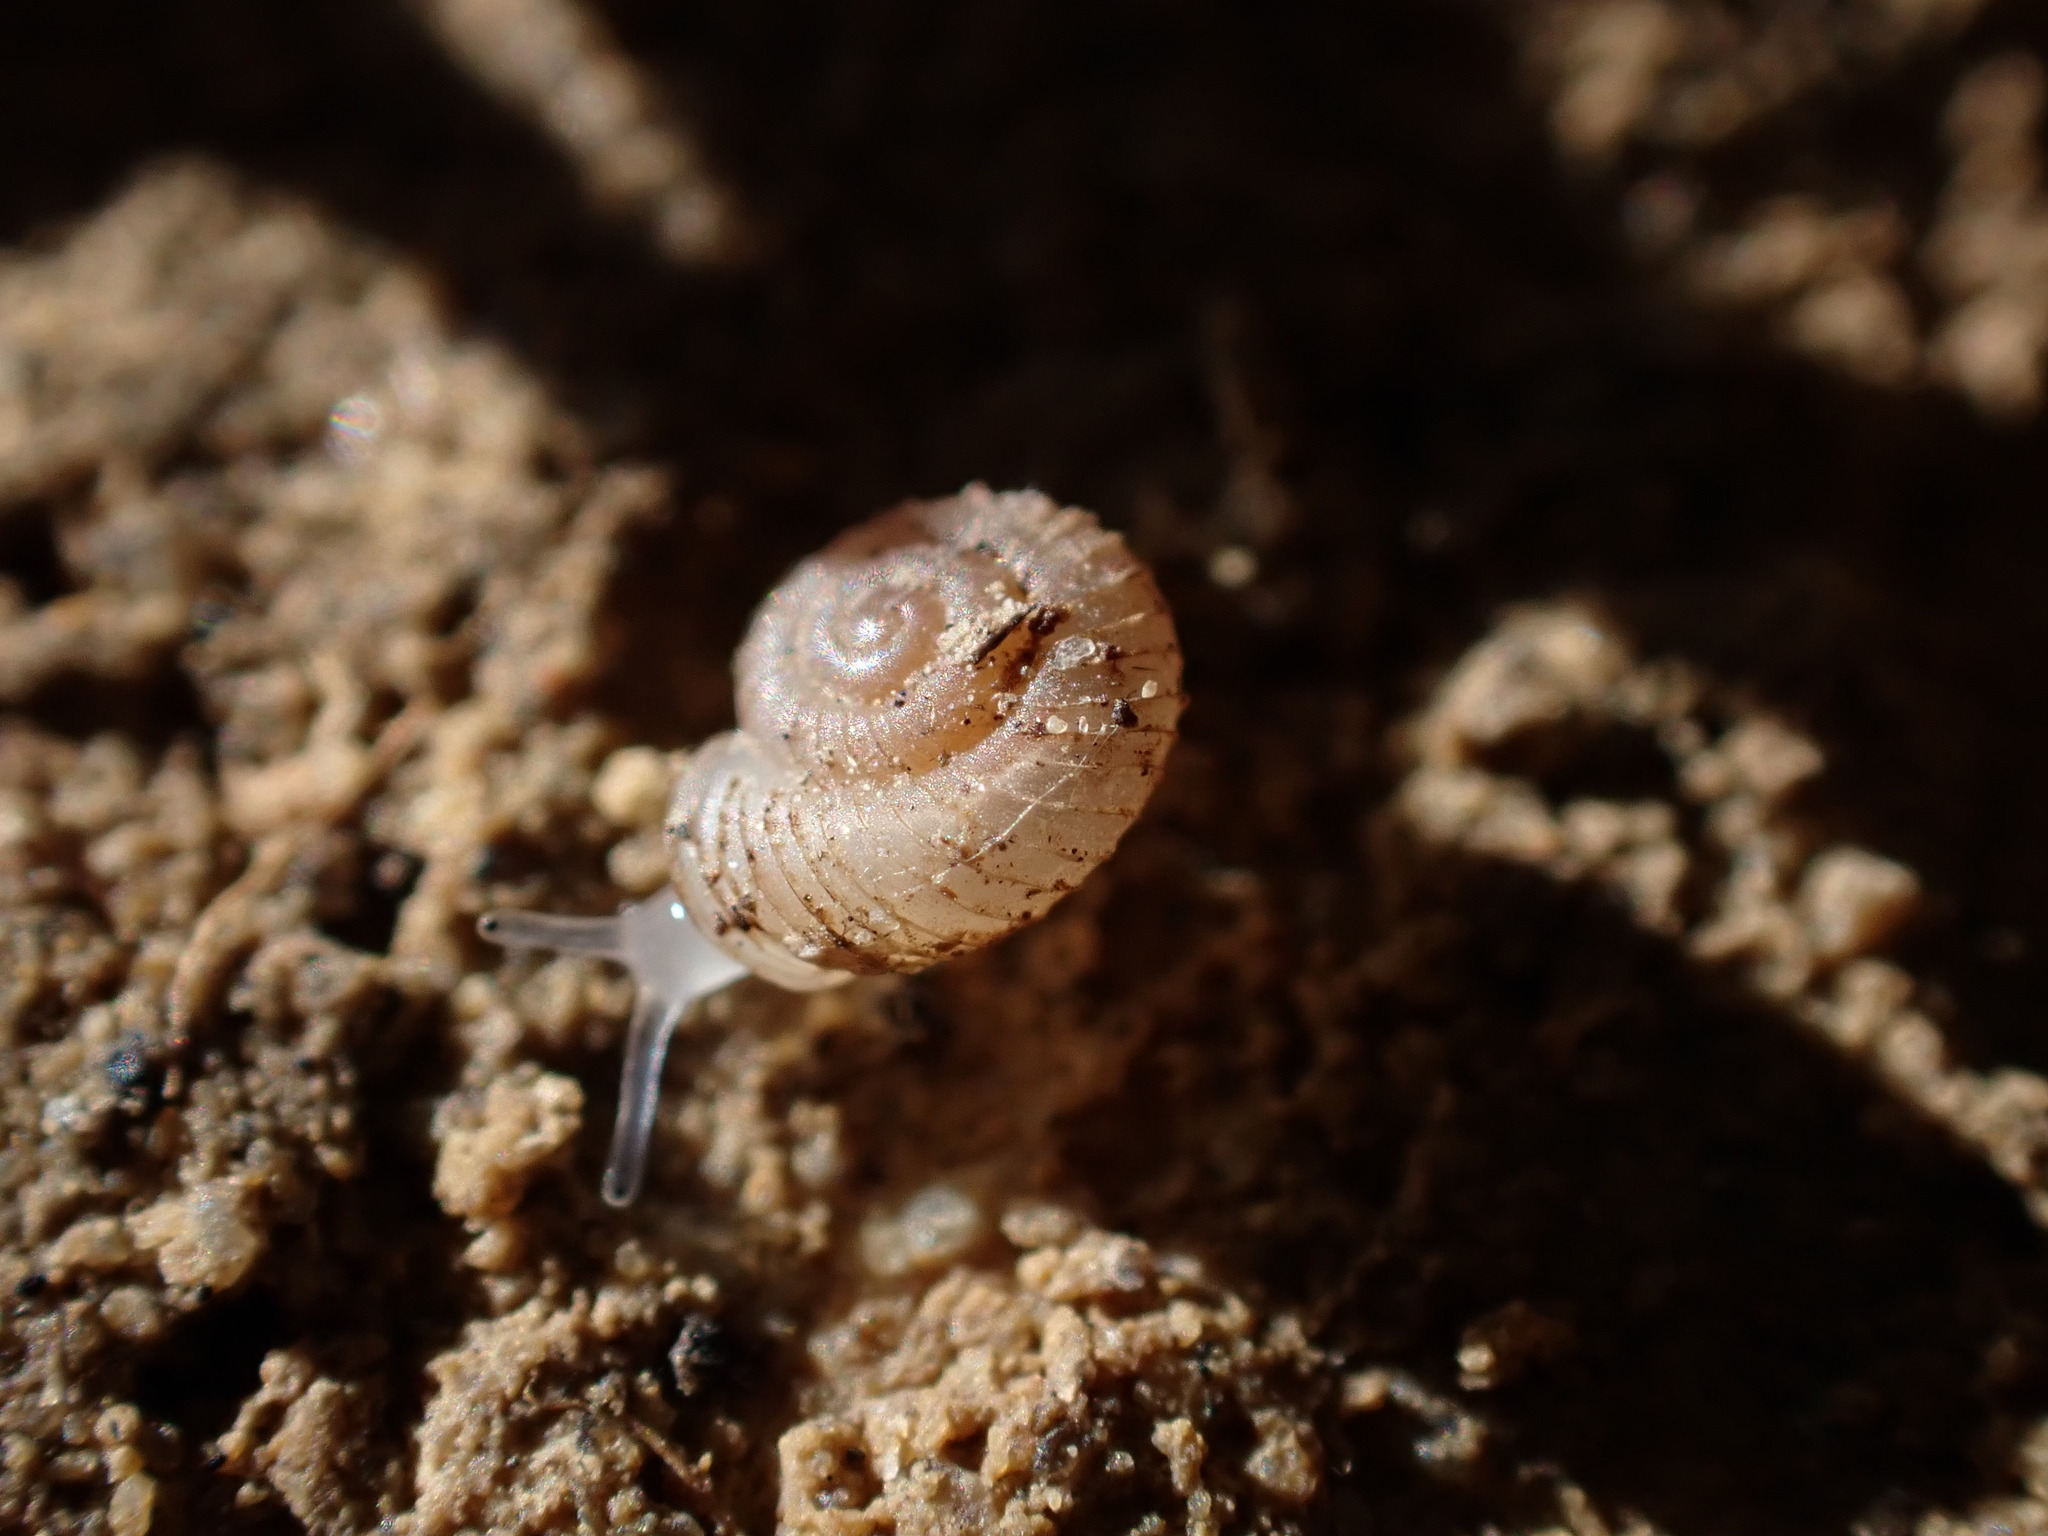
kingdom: Animalia
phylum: Mollusca
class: Gastropoda
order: Stylommatophora
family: Valloniidae
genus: Vallonia
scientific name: Vallonia costata
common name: Ribbed grass snail
